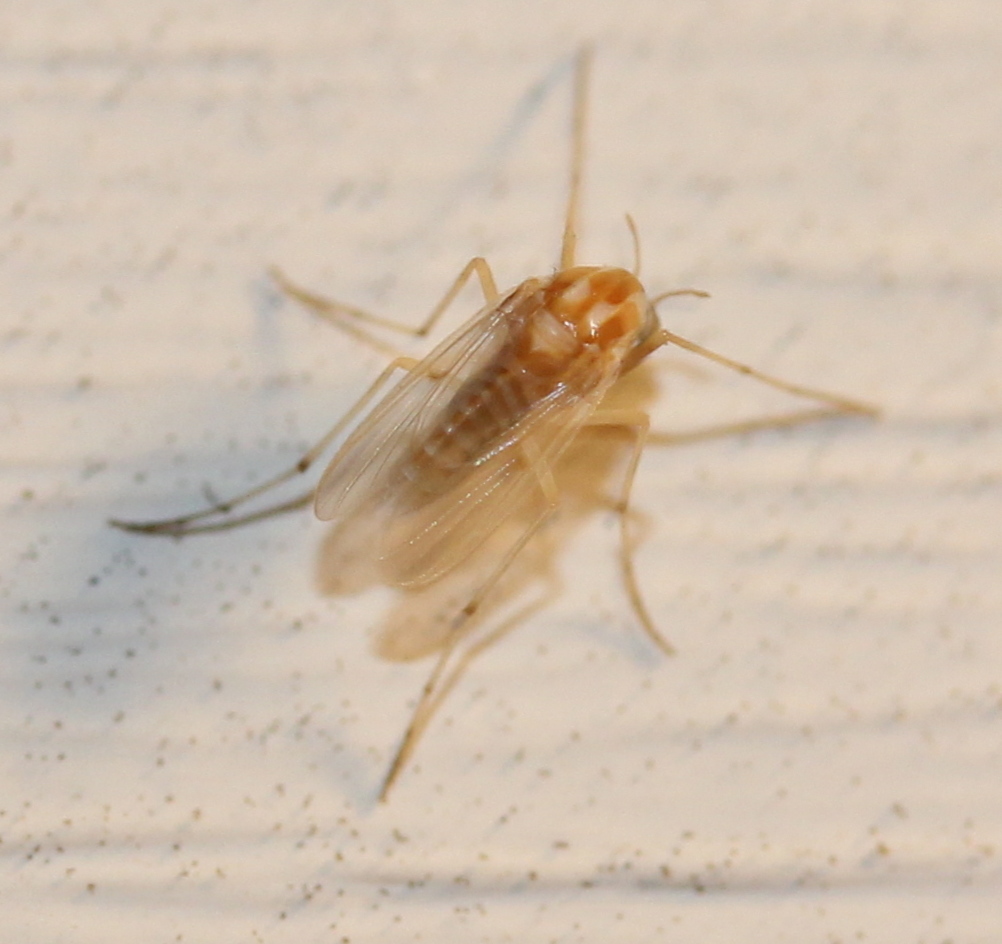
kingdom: Animalia
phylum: Arthropoda
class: Insecta
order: Diptera
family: Chironomidae
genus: Procladius
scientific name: Procladius bellus
